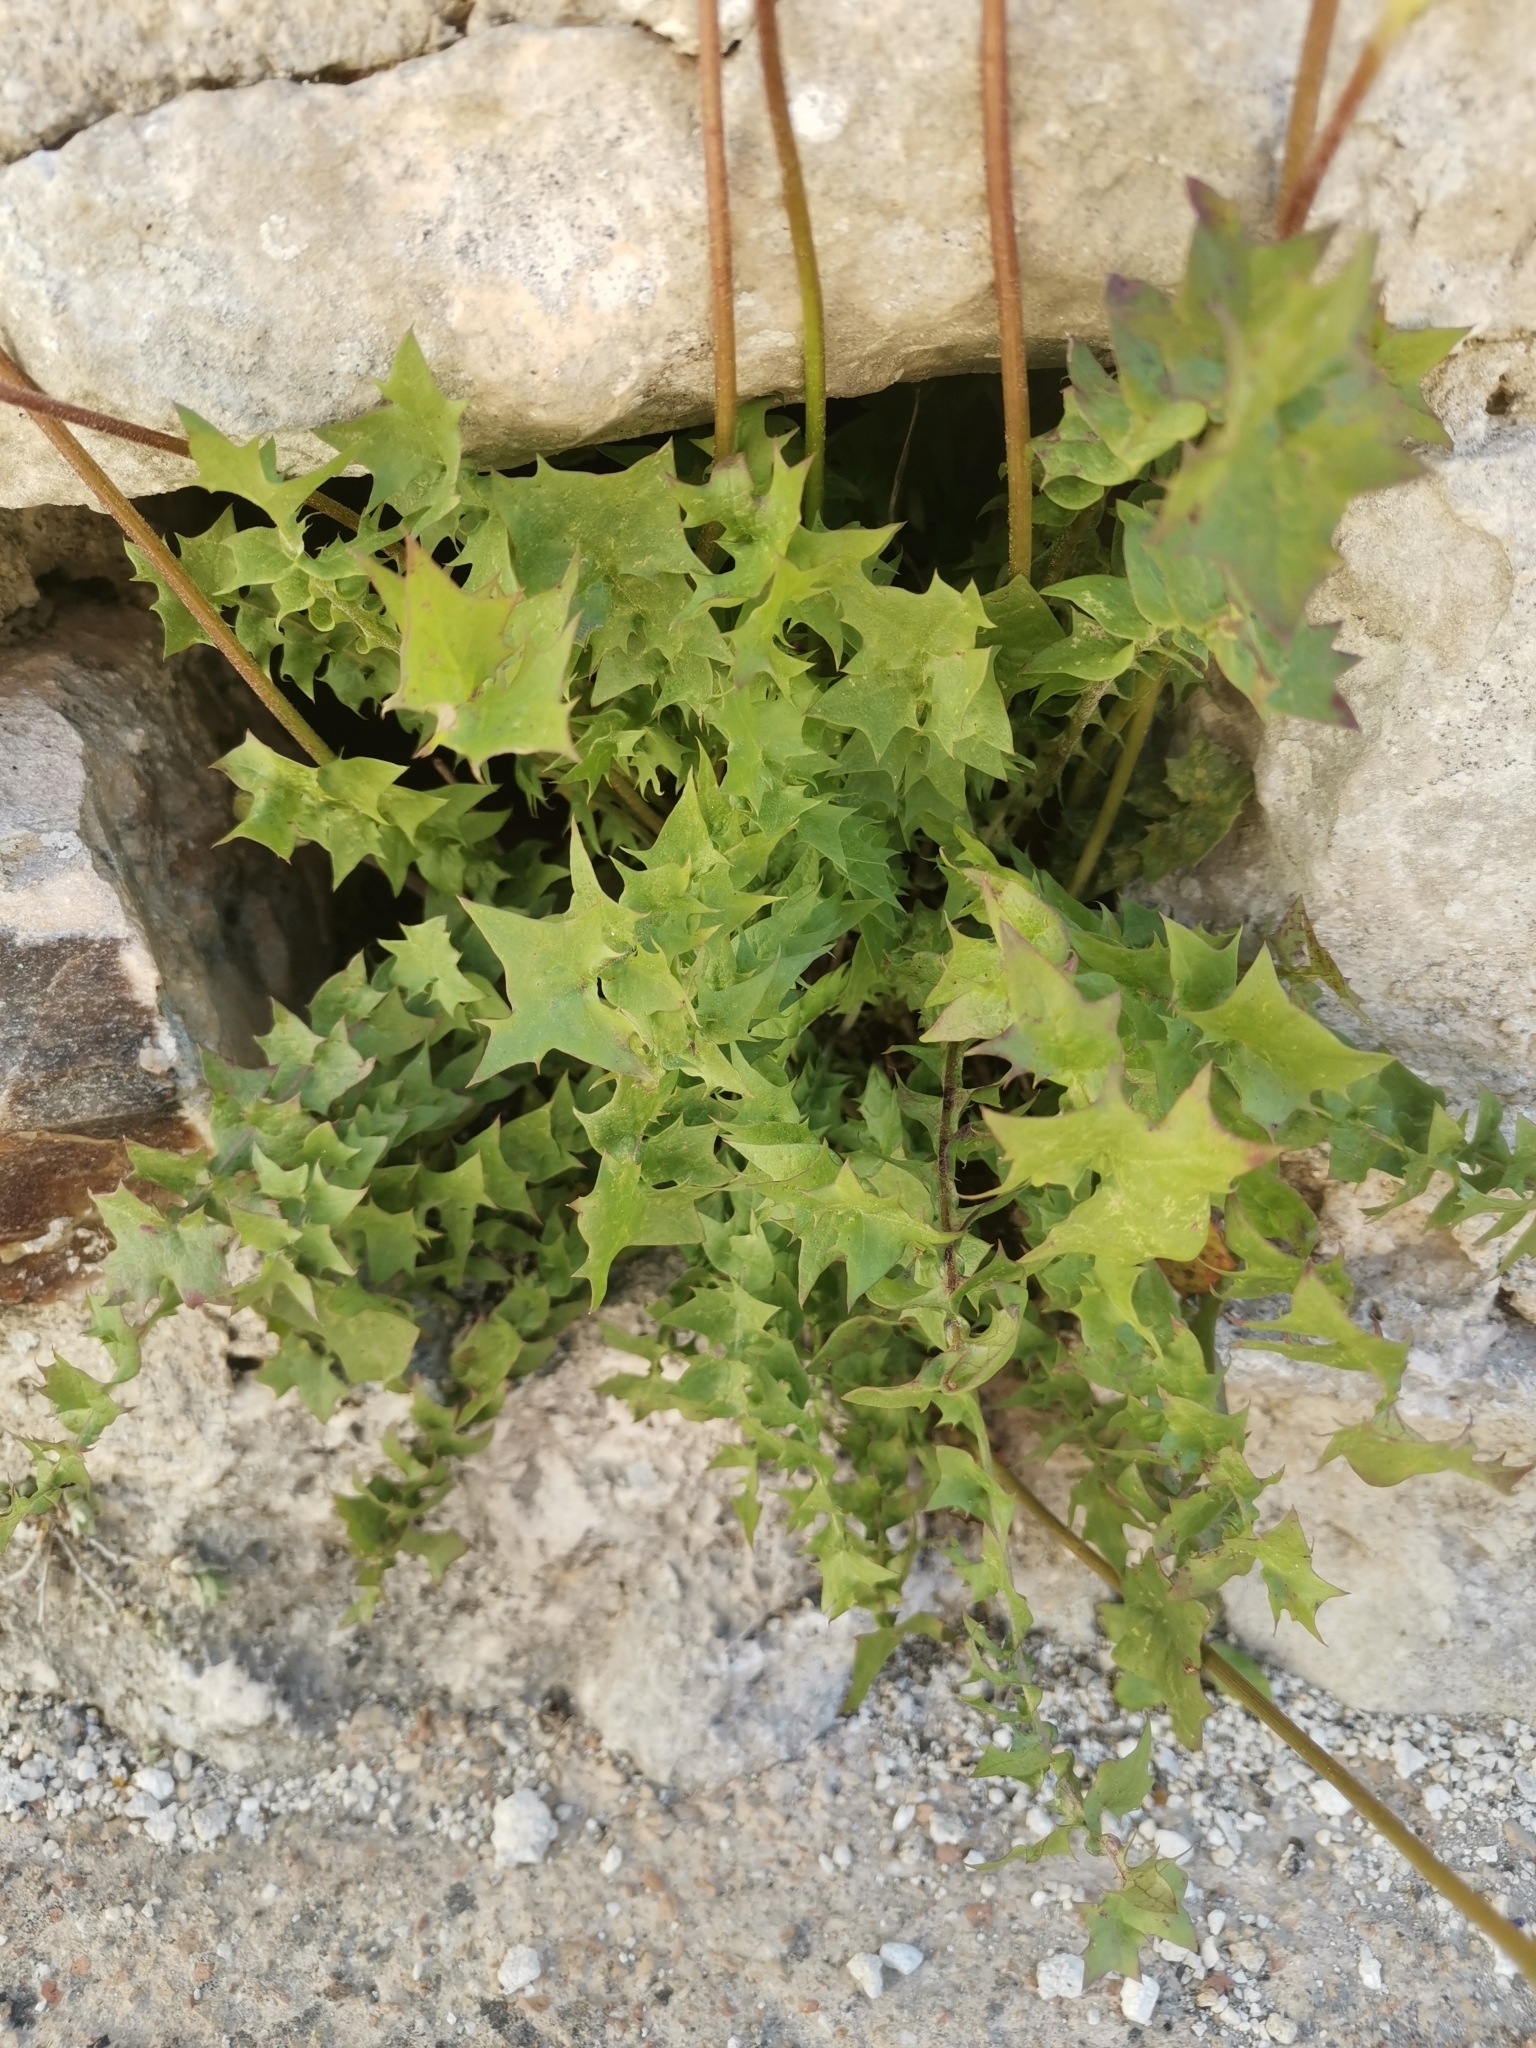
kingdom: Plantae
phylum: Tracheophyta
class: Magnoliopsida
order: Asterales
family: Asteraceae
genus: Hyoseris
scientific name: Hyoseris radiata
